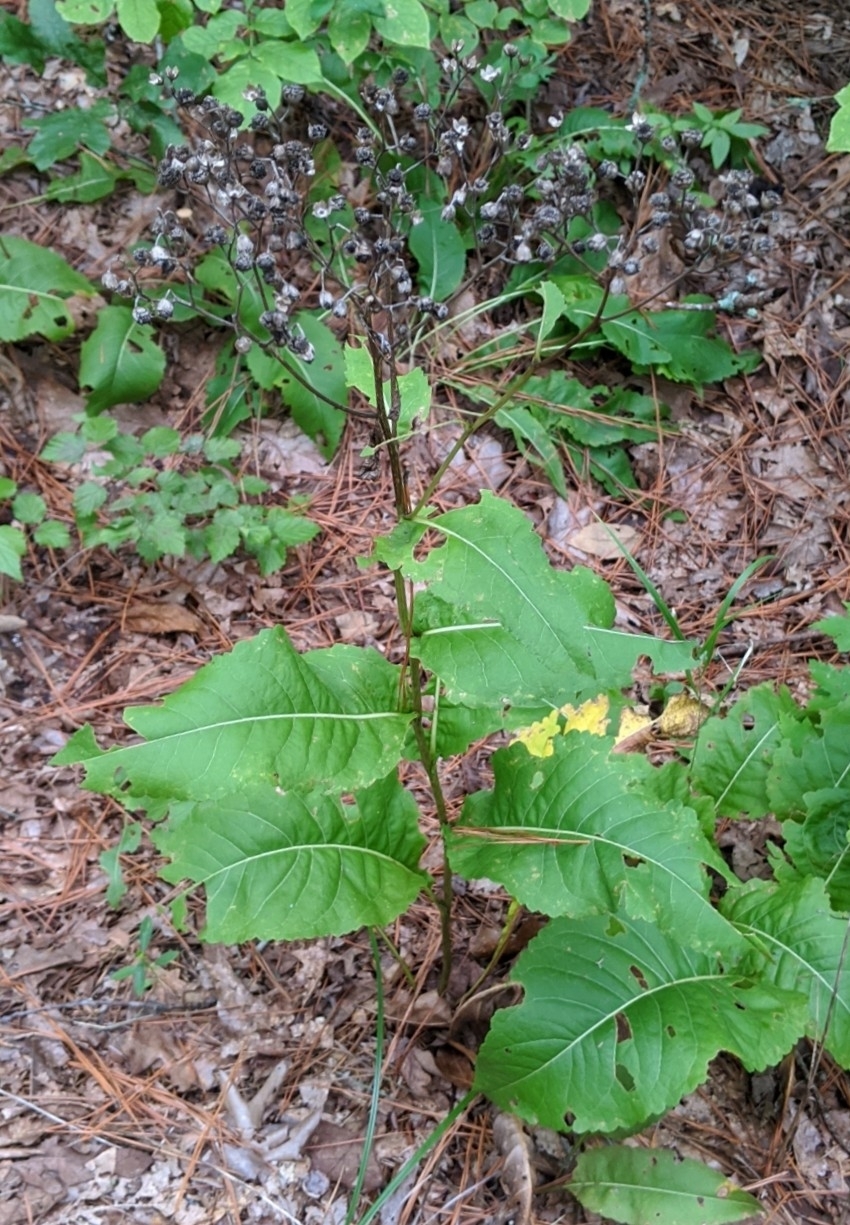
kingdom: Plantae
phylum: Tracheophyta
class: Magnoliopsida
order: Asterales
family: Asteraceae
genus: Parthenium
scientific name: Parthenium integrifolium
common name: American feverfew
